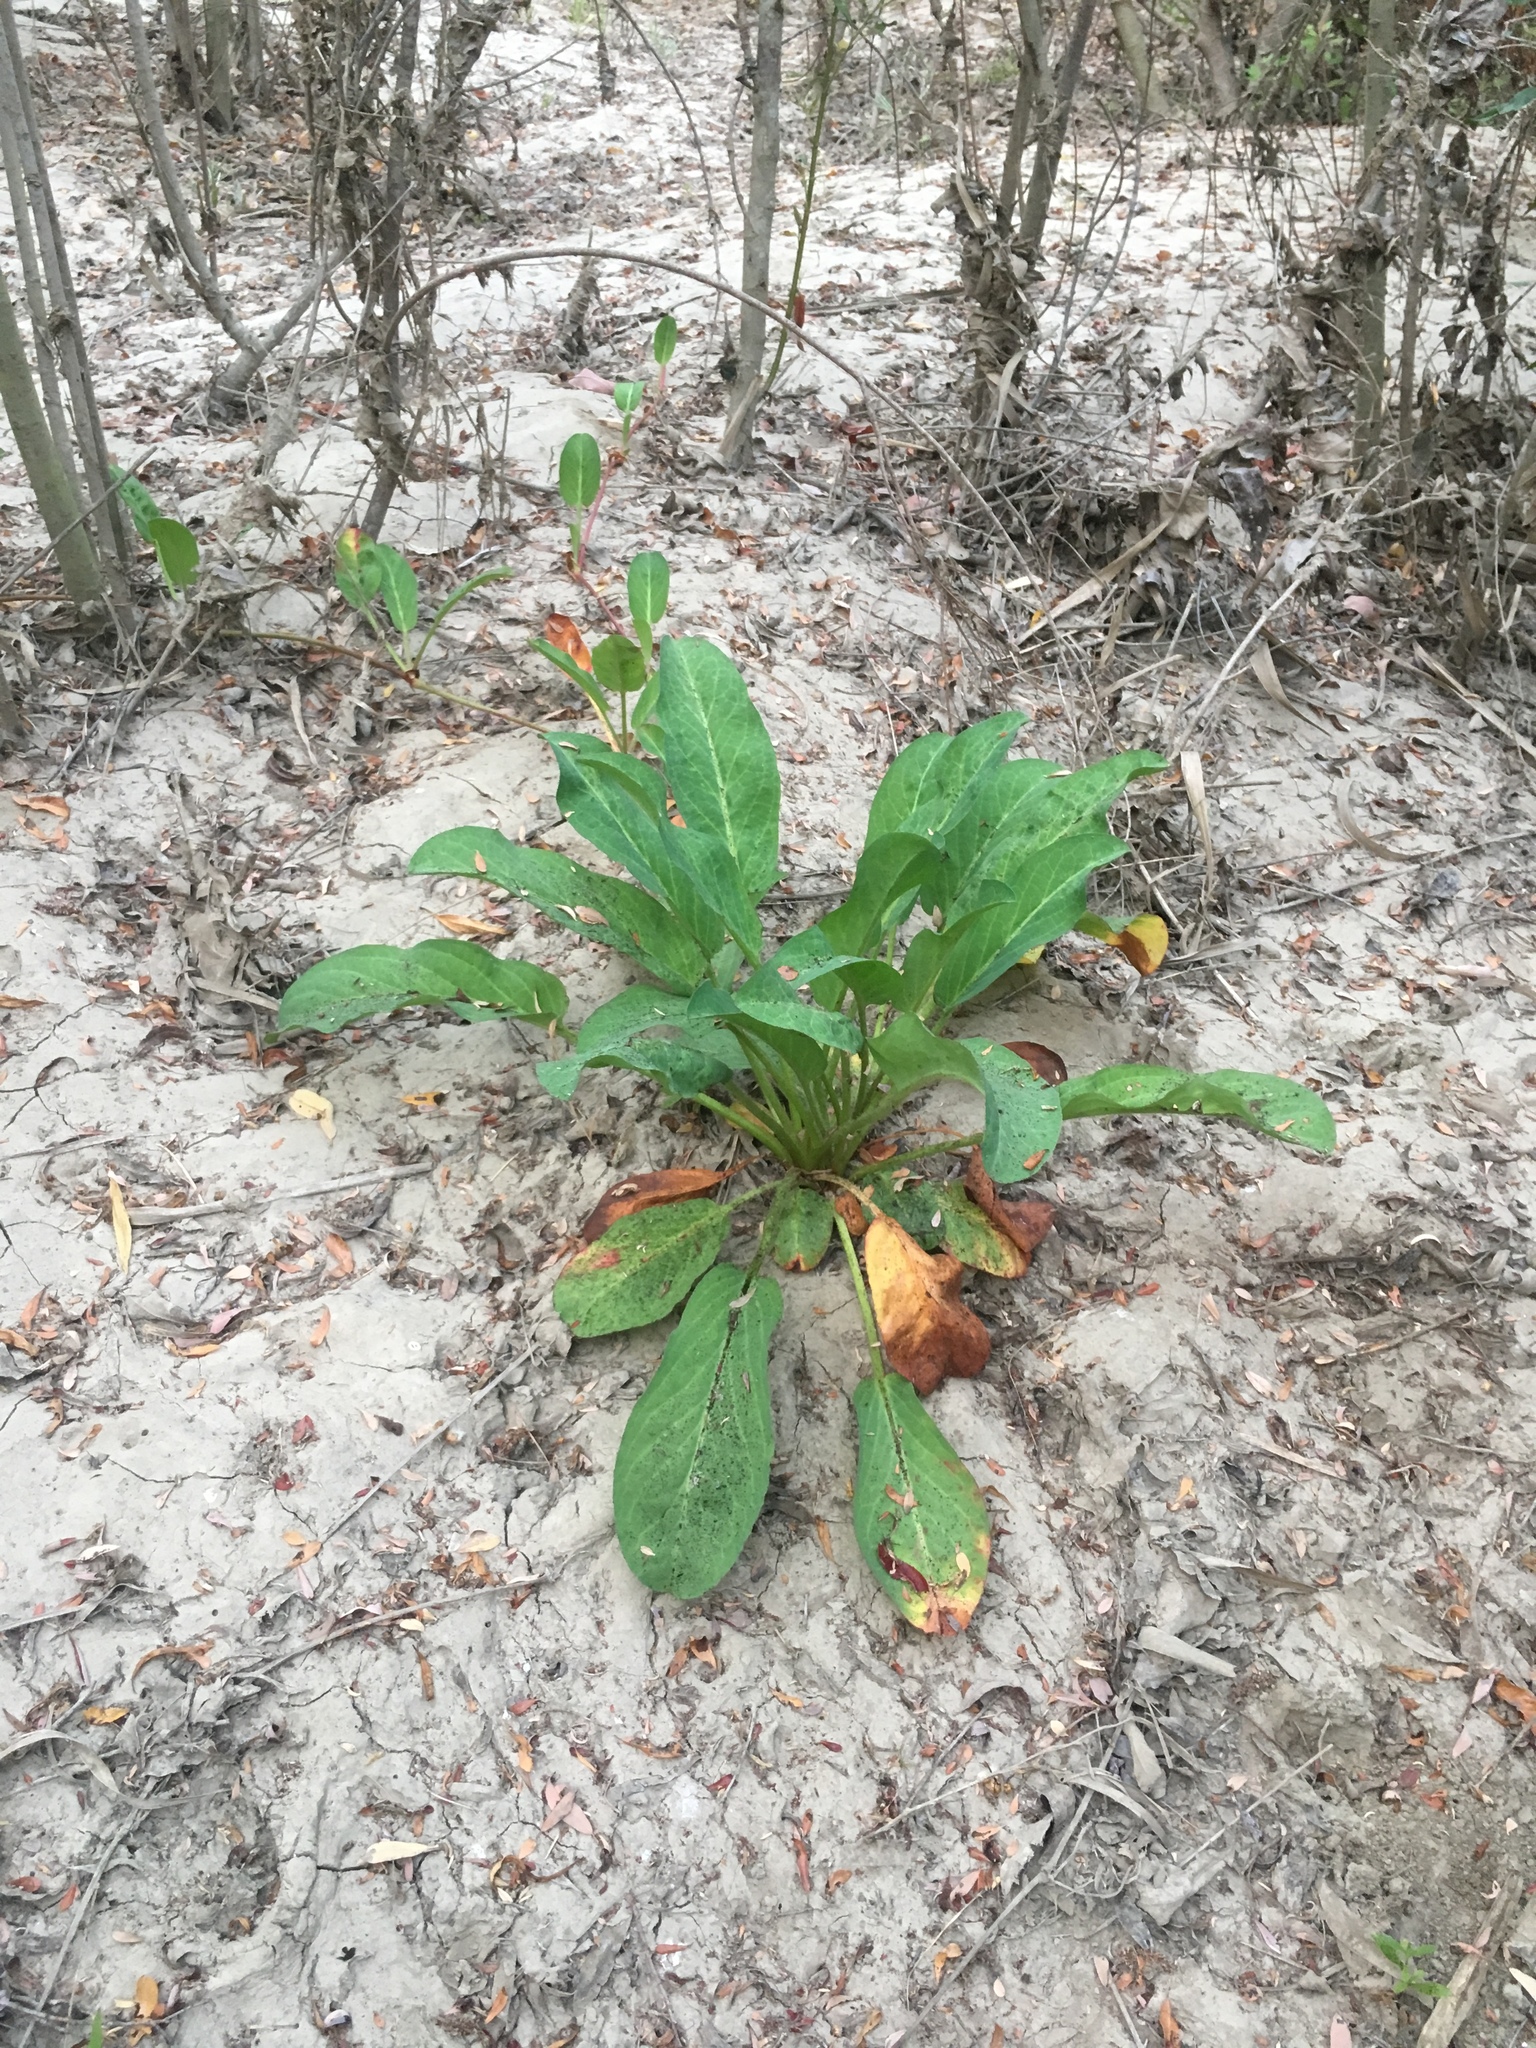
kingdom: Plantae
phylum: Tracheophyta
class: Magnoliopsida
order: Piperales
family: Saururaceae
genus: Anemopsis
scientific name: Anemopsis californica
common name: Apache-beads
